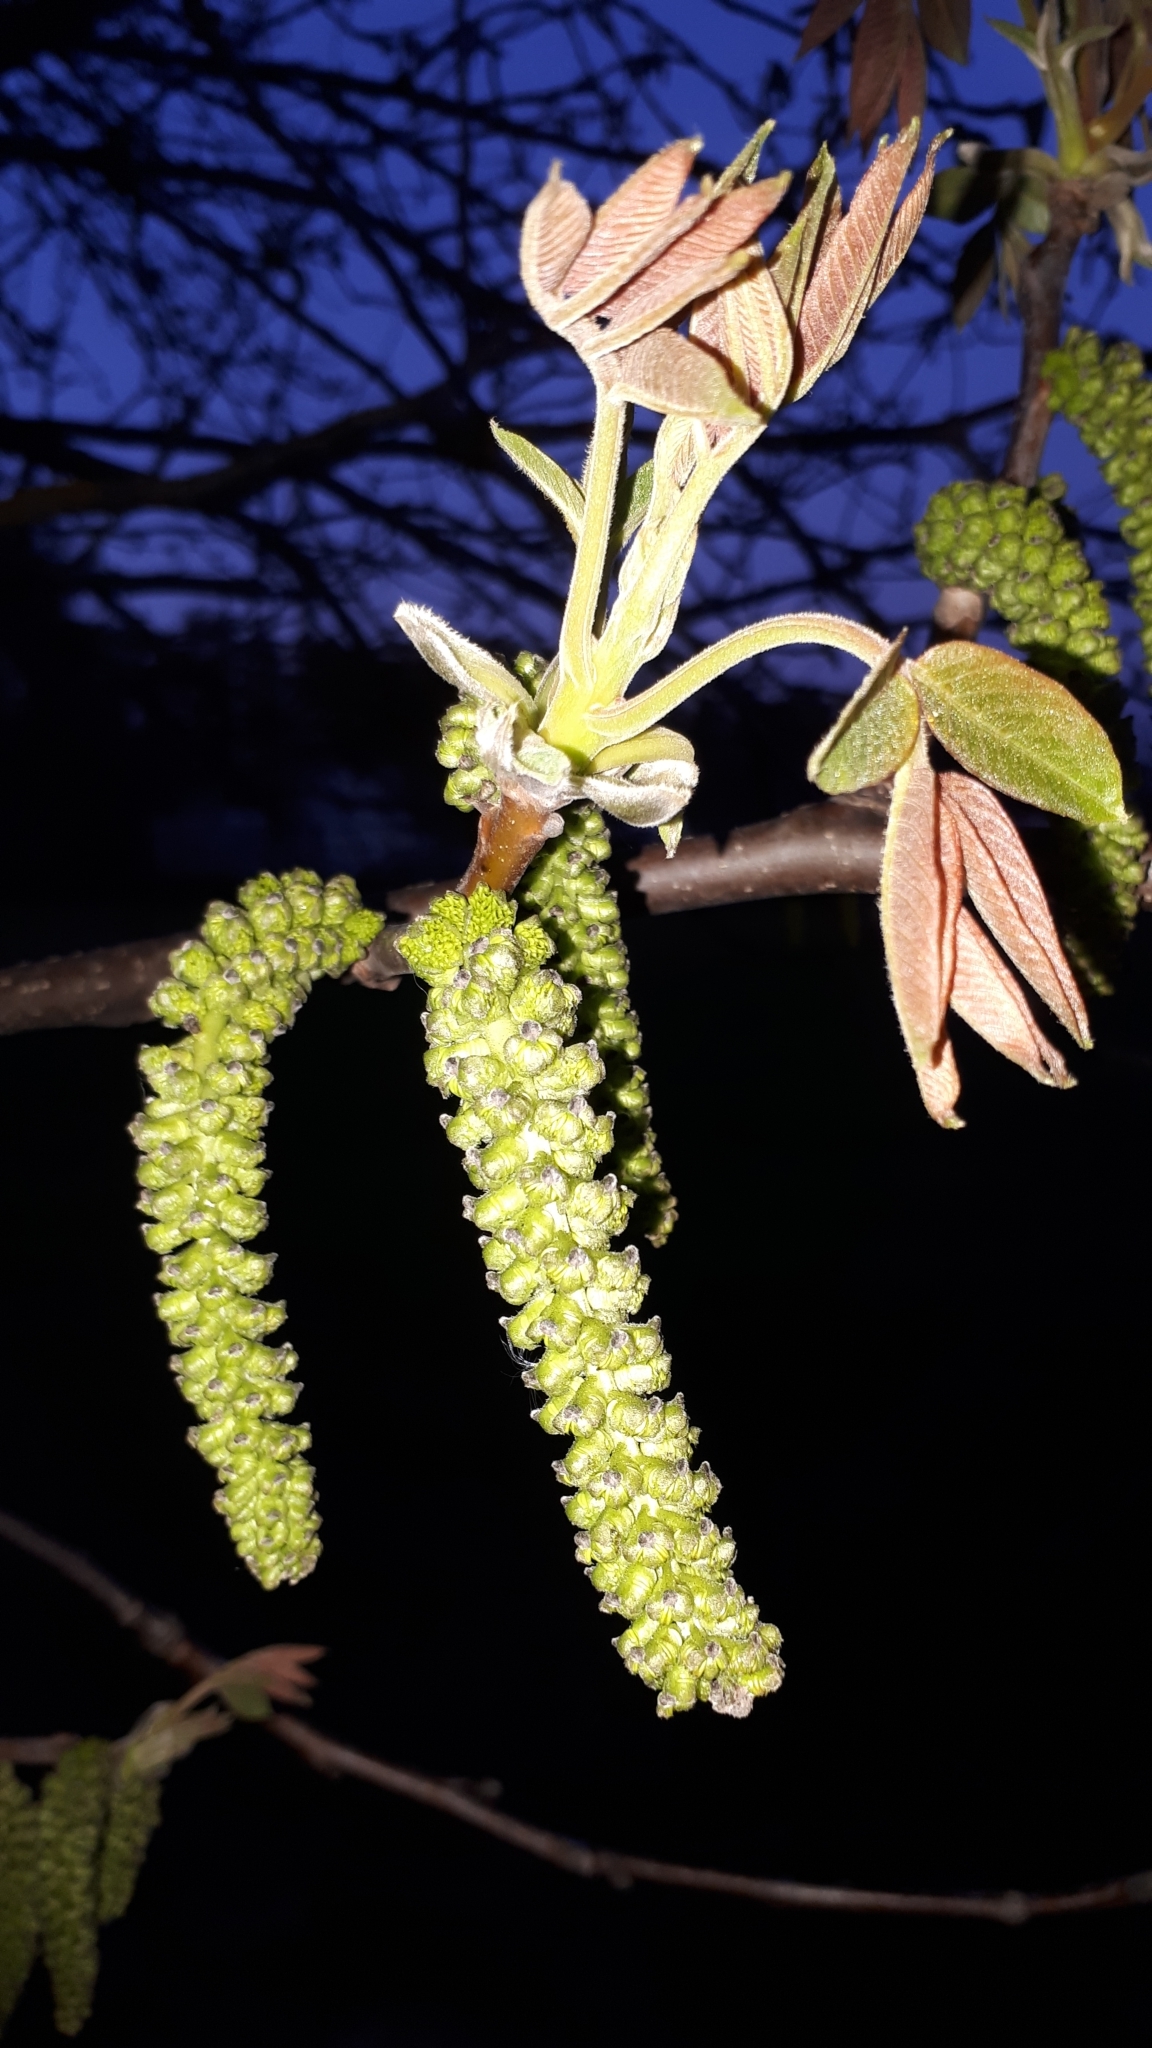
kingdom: Plantae
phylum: Tracheophyta
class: Magnoliopsida
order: Fagales
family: Juglandaceae
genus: Juglans
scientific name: Juglans regia
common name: Walnut
